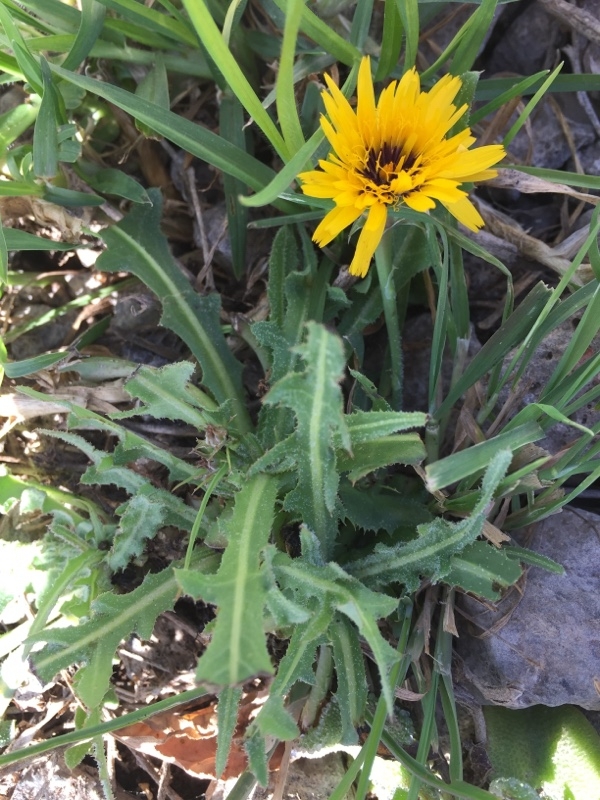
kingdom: Plantae
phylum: Tracheophyta
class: Magnoliopsida
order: Asterales
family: Asteraceae
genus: Reichardia
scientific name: Reichardia tingitana
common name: Reichardia
